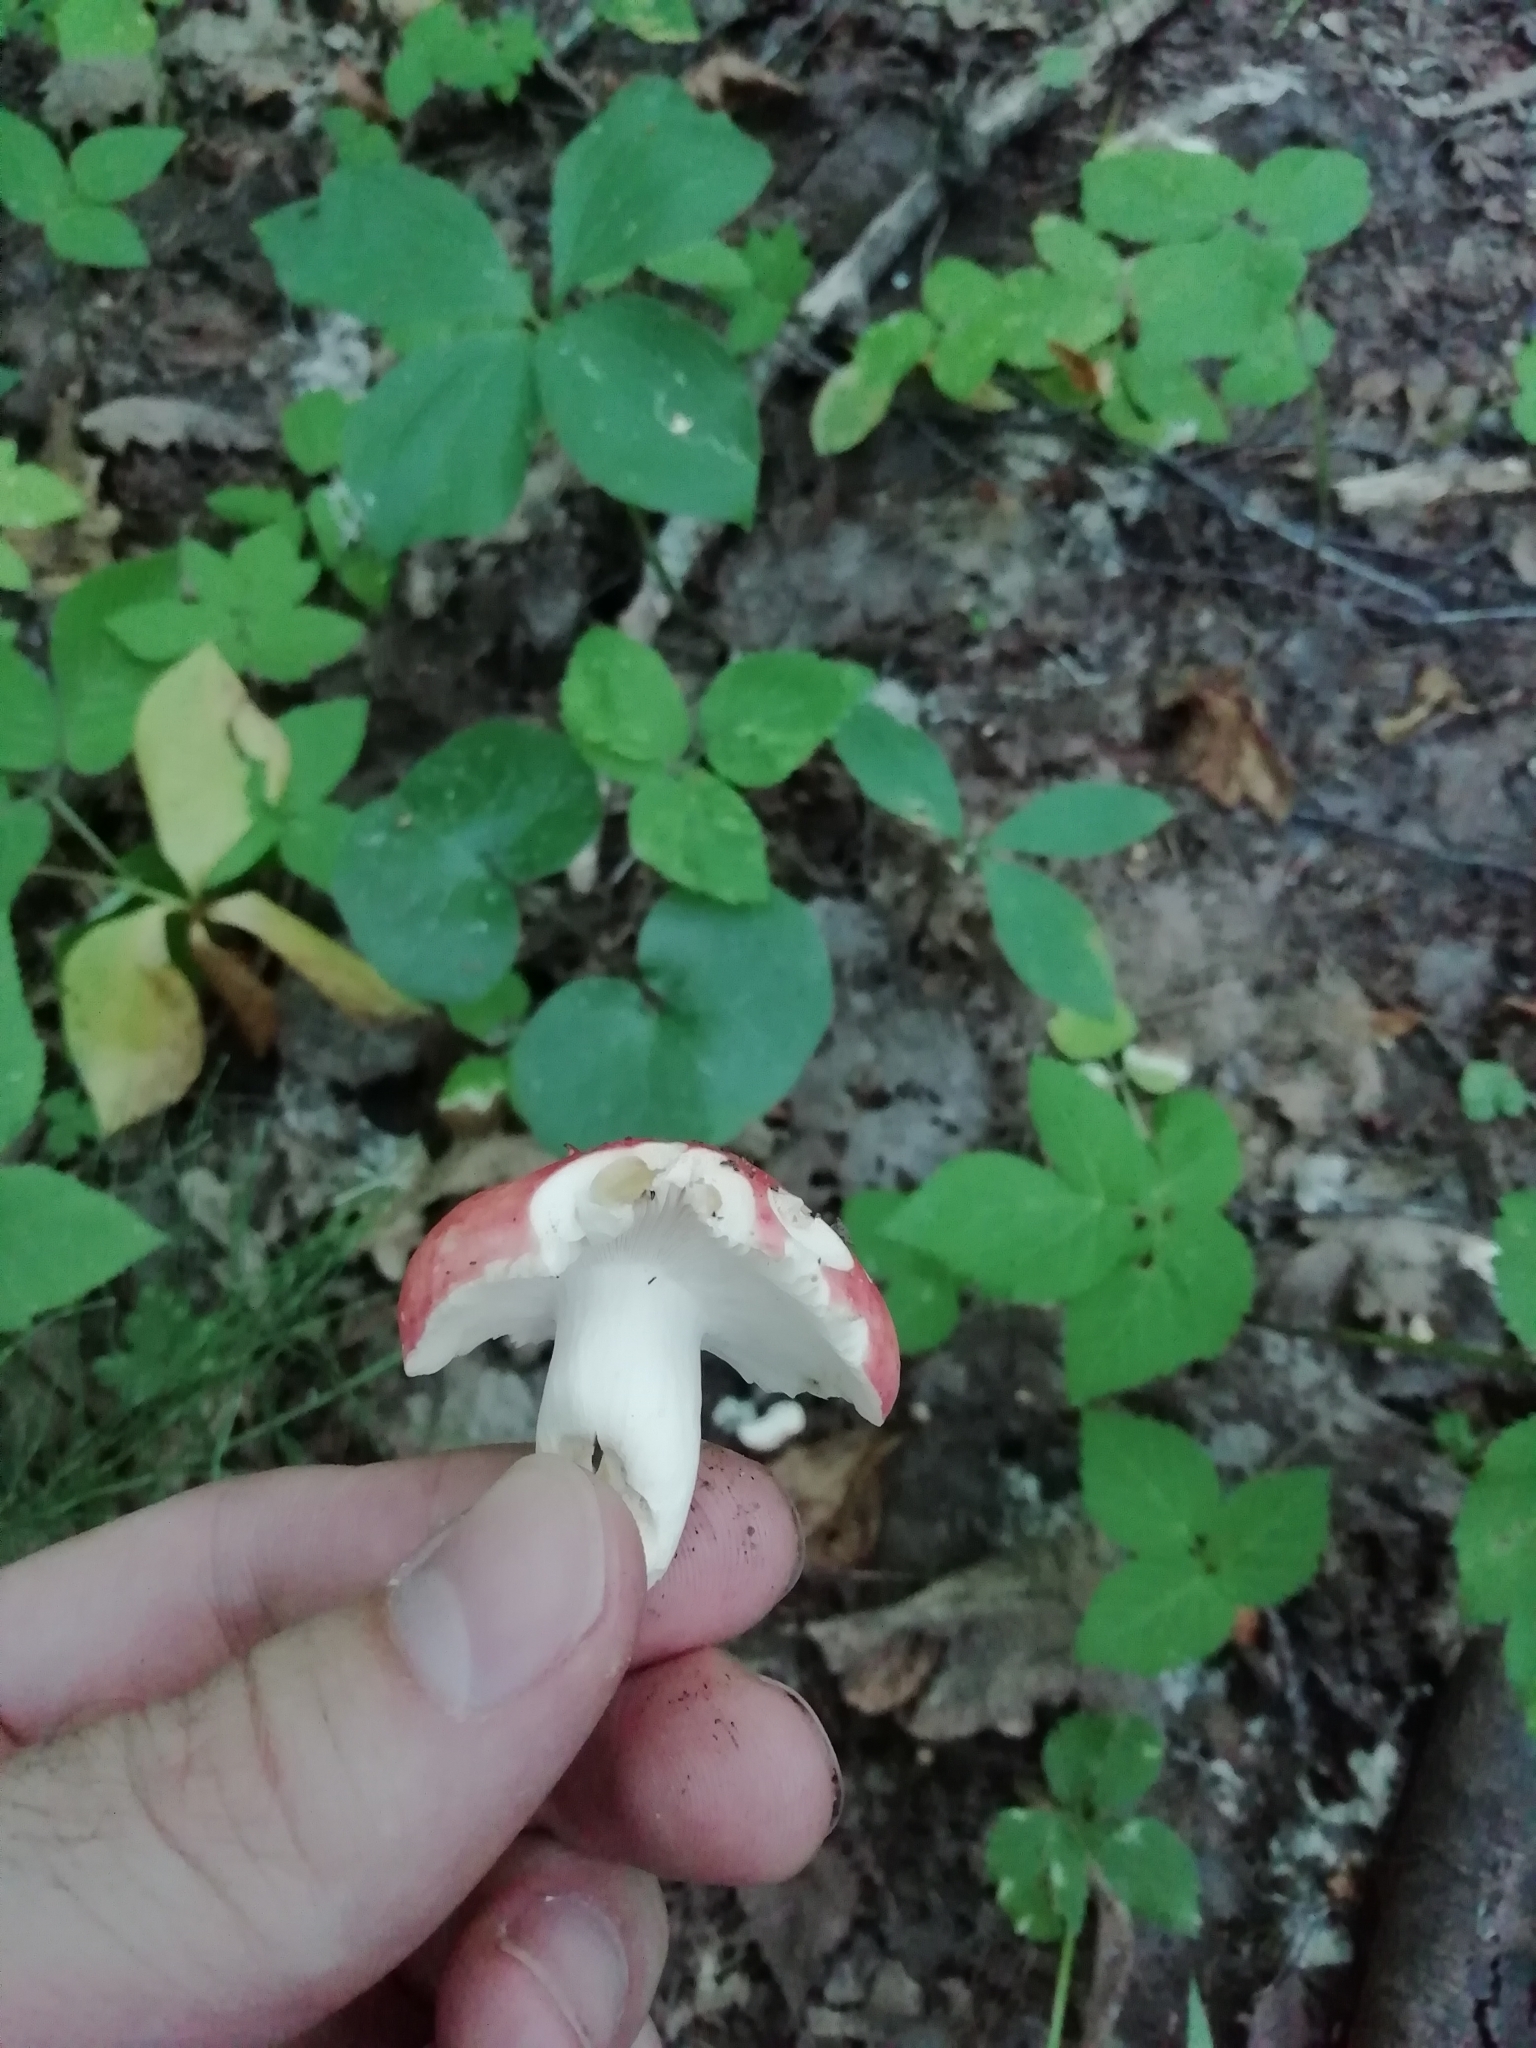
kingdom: Fungi
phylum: Basidiomycota
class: Agaricomycetes
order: Russulales
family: Russulaceae
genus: Russula
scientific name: Russula sanguinea
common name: Bloody brittlegill
